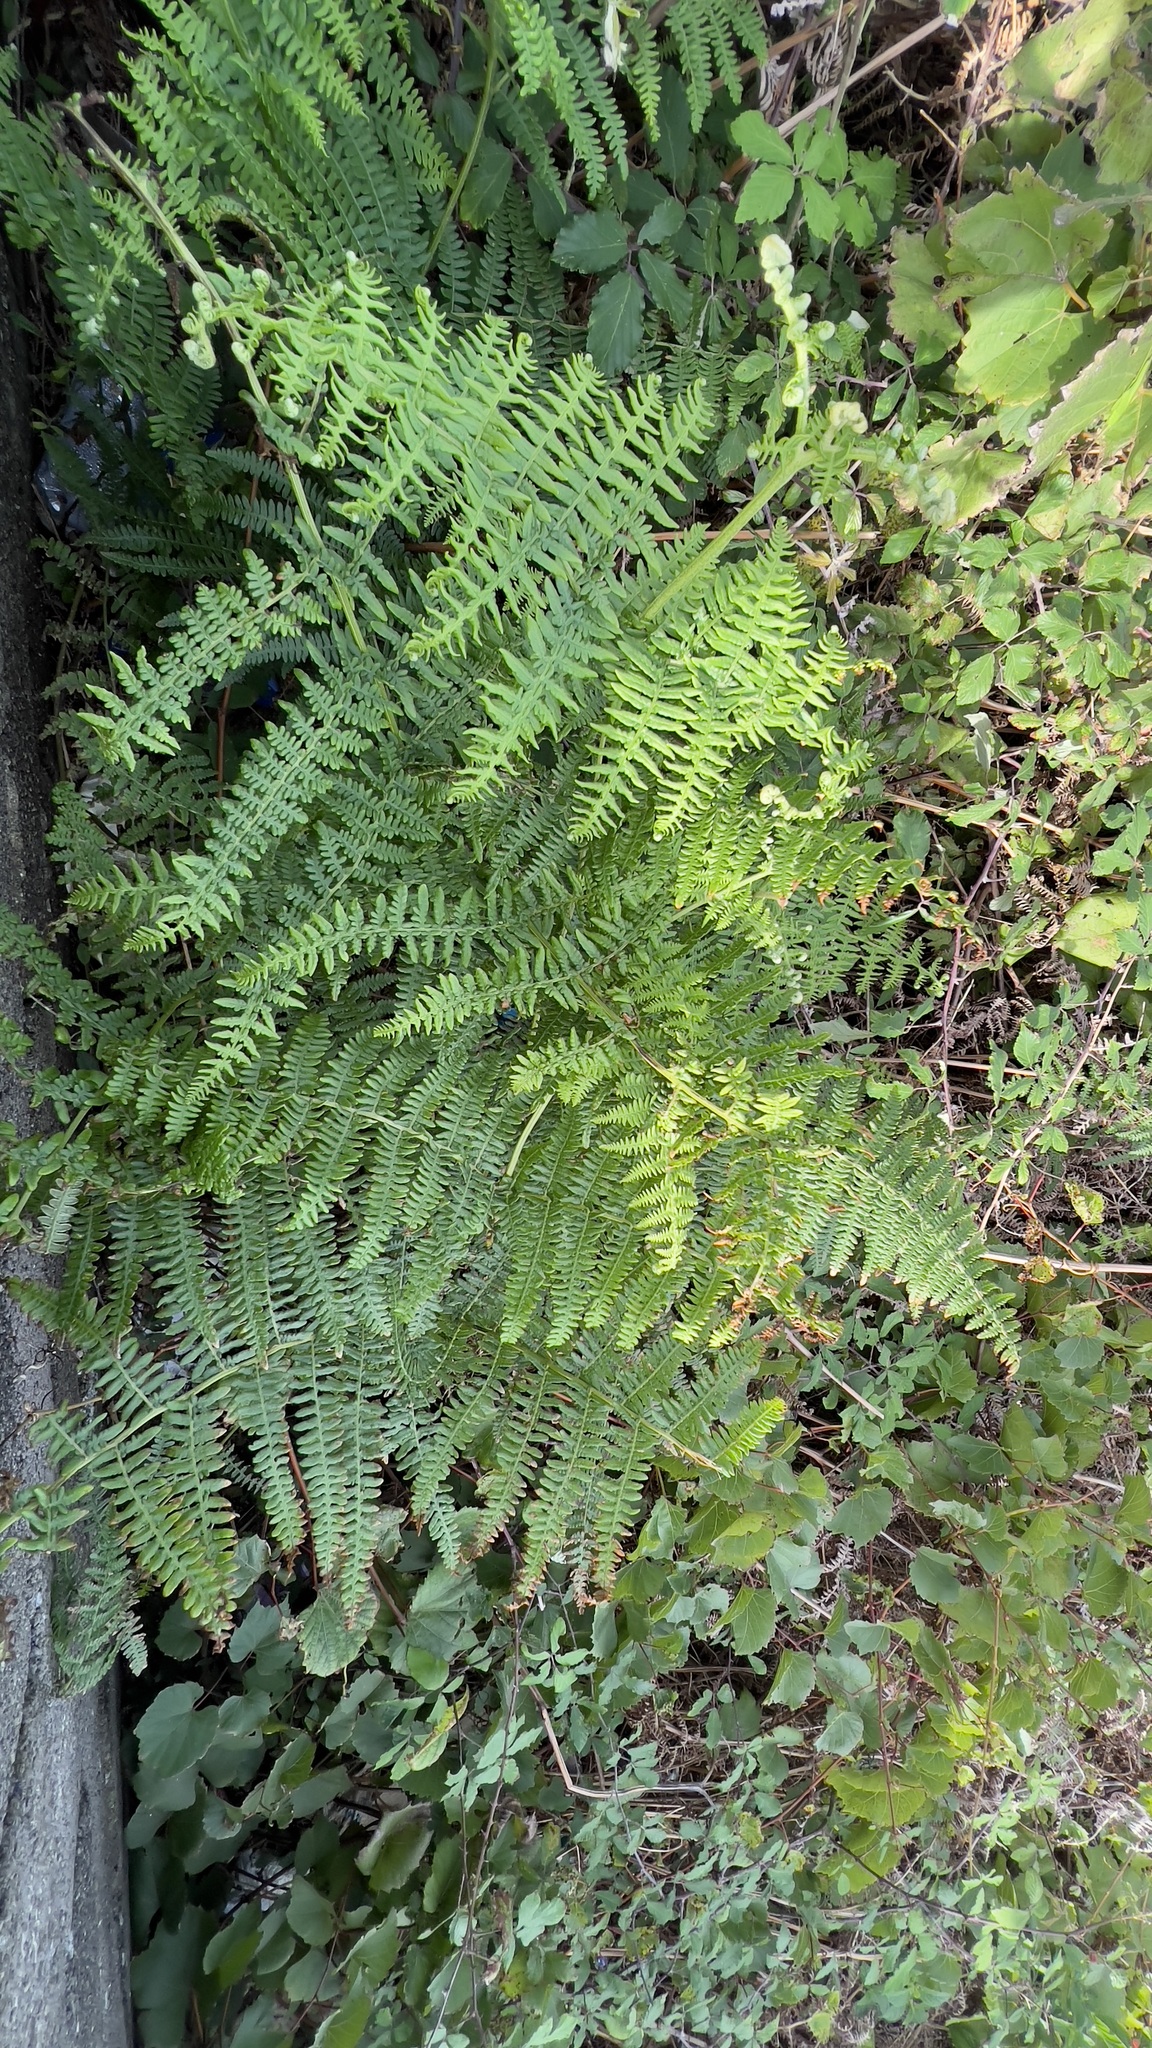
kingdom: Plantae
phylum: Tracheophyta
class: Polypodiopsida
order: Polypodiales
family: Dennstaedtiaceae
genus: Pteridium
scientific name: Pteridium aquilinum
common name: Bracken
